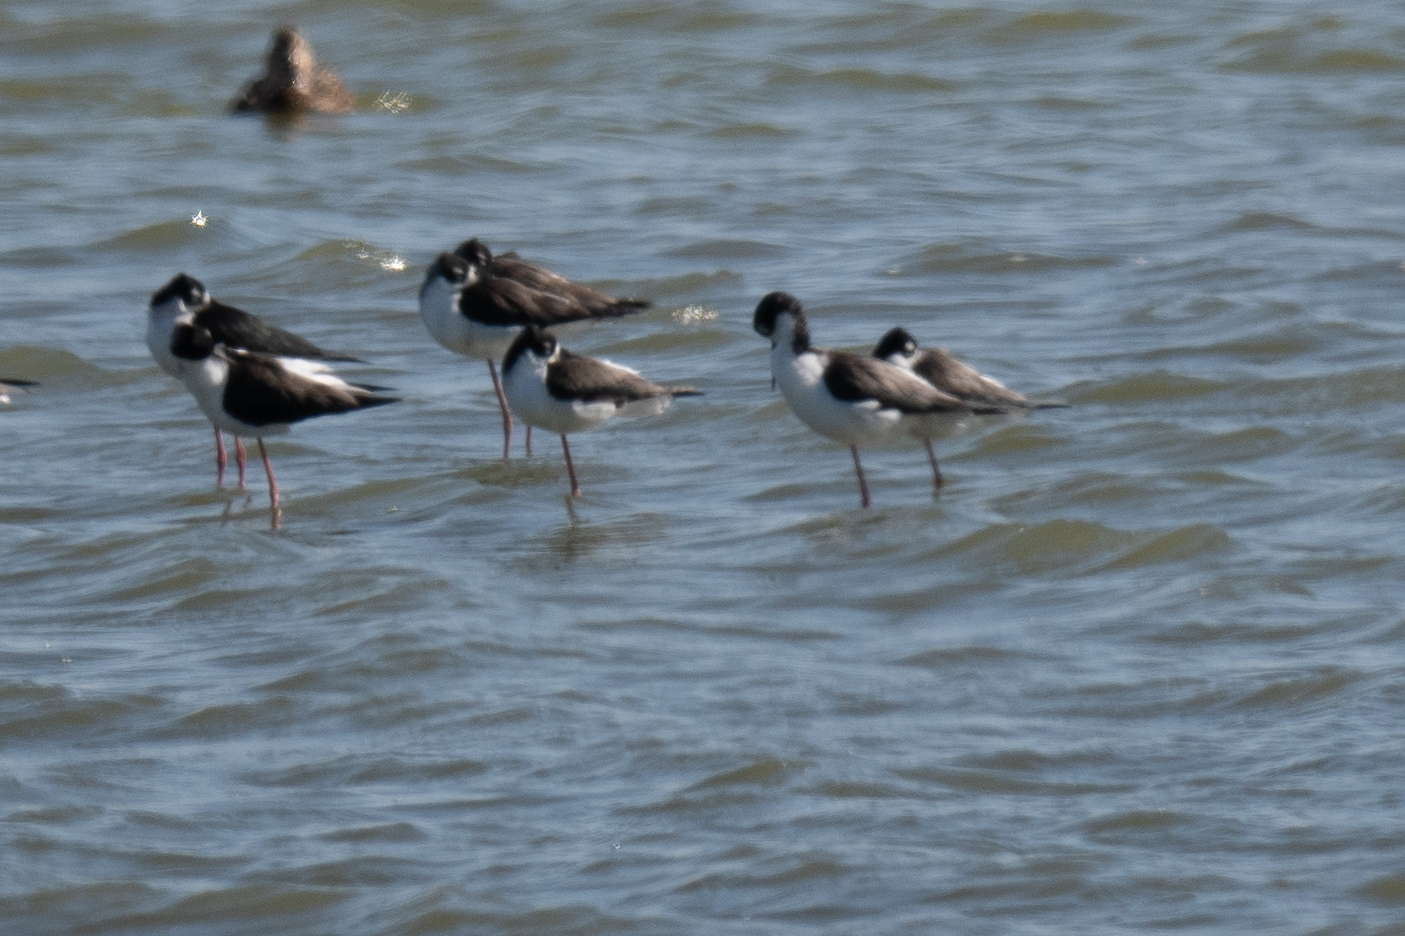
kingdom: Animalia
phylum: Chordata
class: Aves
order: Charadriiformes
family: Recurvirostridae
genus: Himantopus
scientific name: Himantopus mexicanus
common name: Black-necked stilt
